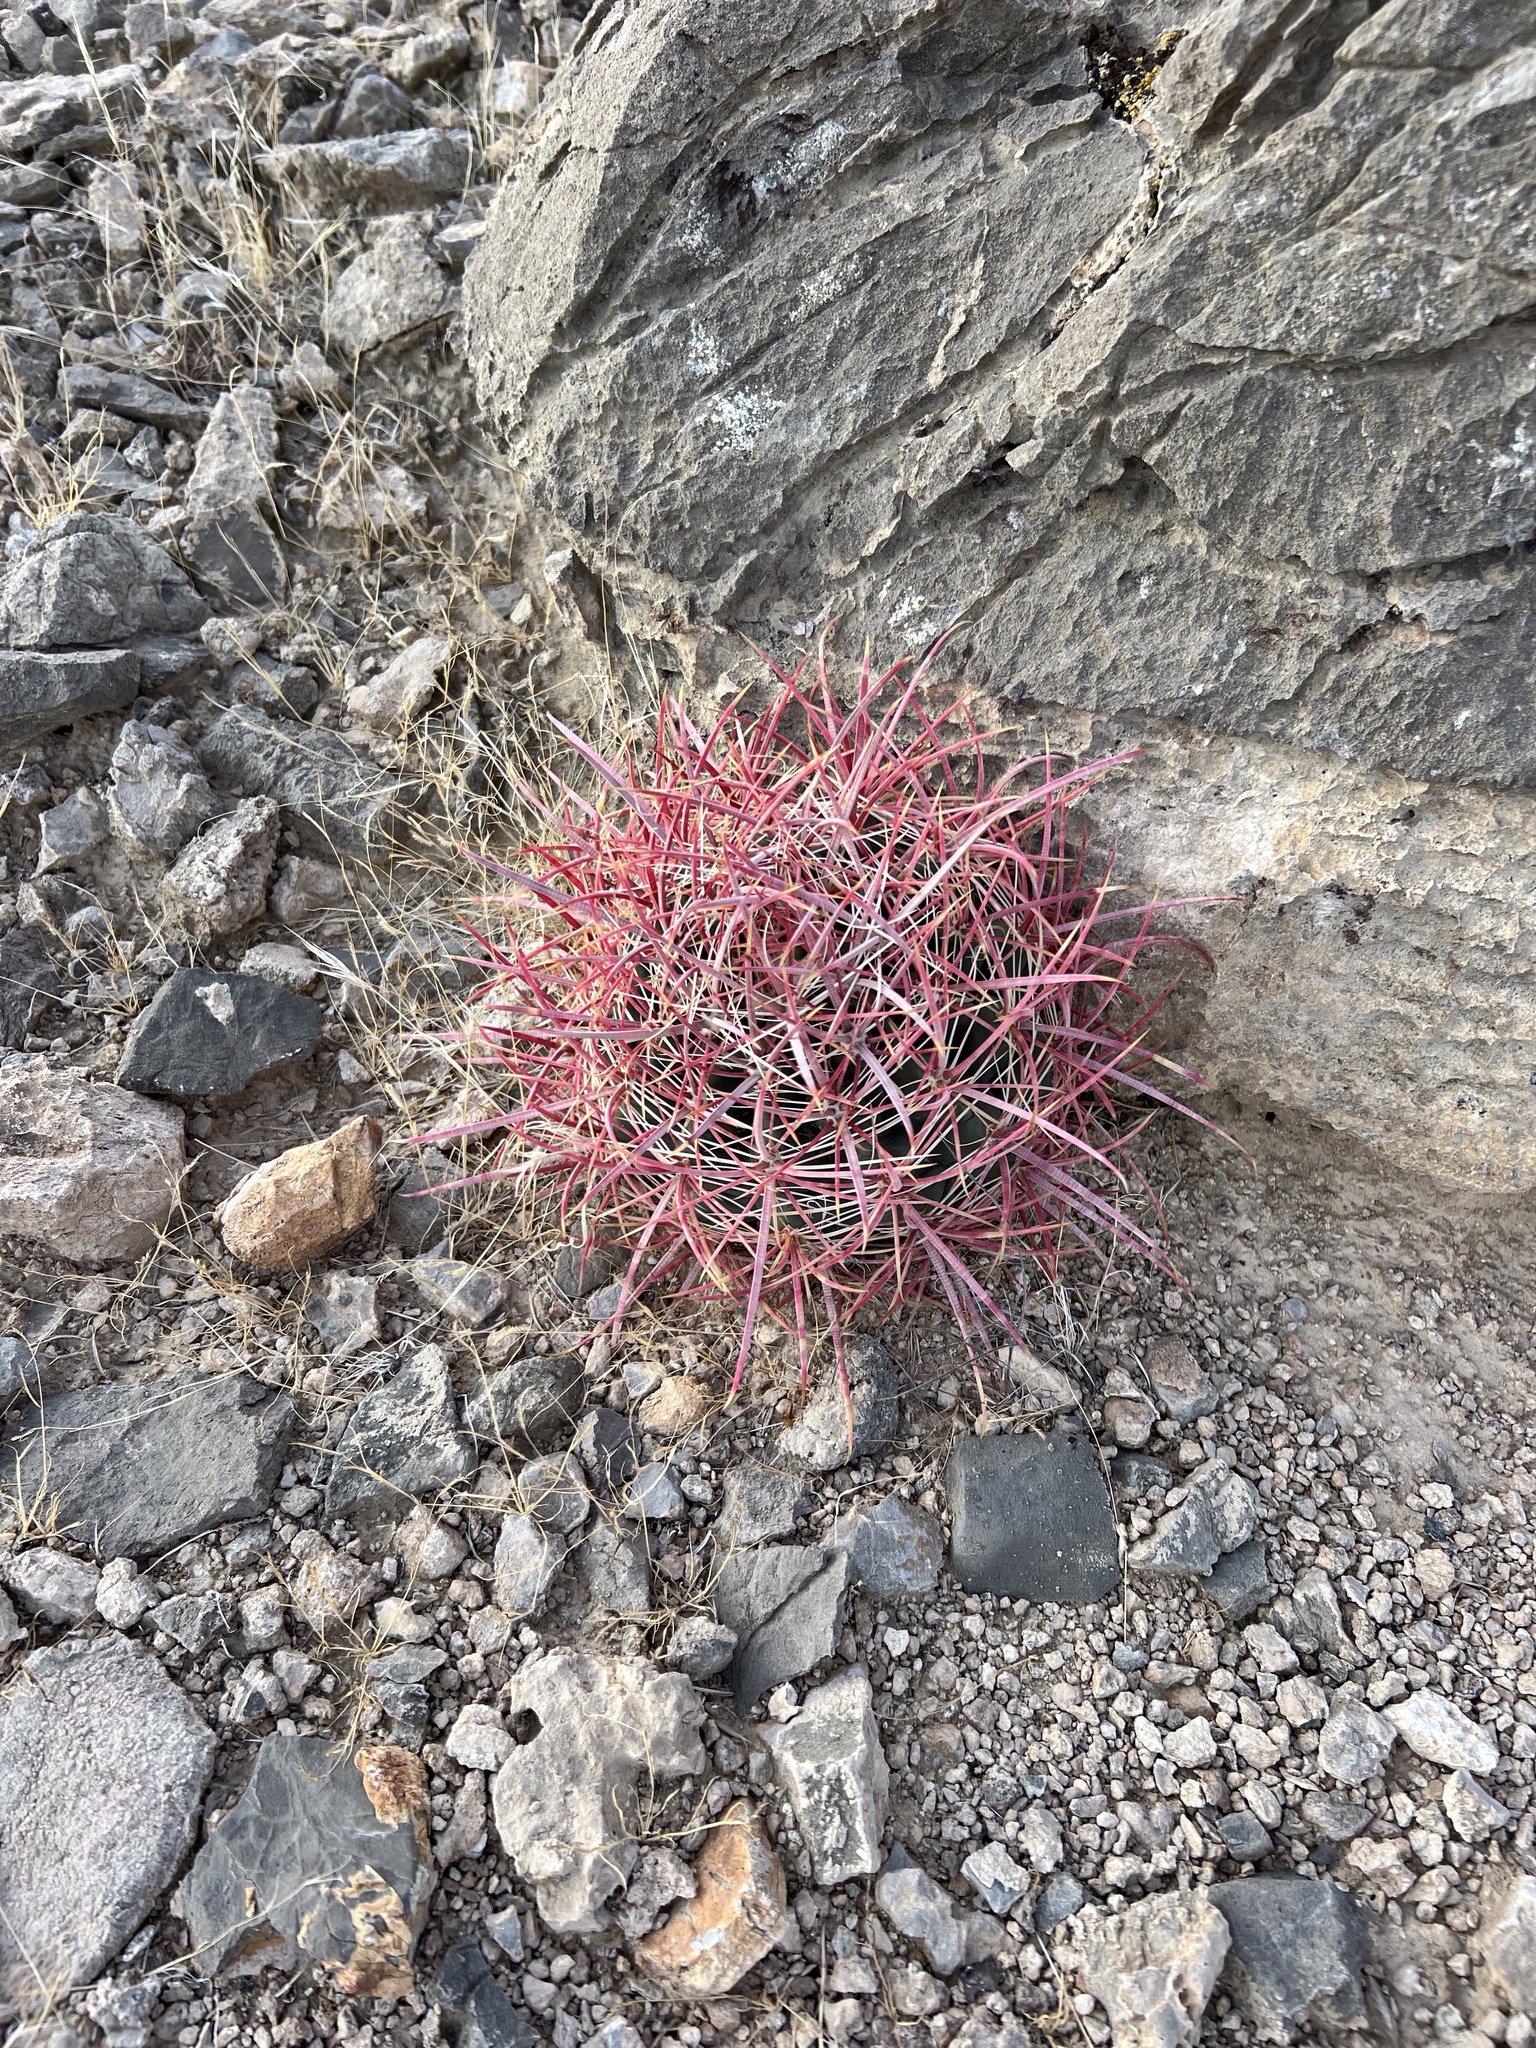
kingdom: Plantae
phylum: Tracheophyta
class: Magnoliopsida
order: Caryophyllales
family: Cactaceae
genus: Ferocactus
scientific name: Ferocactus cylindraceus
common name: California barrel cactus
